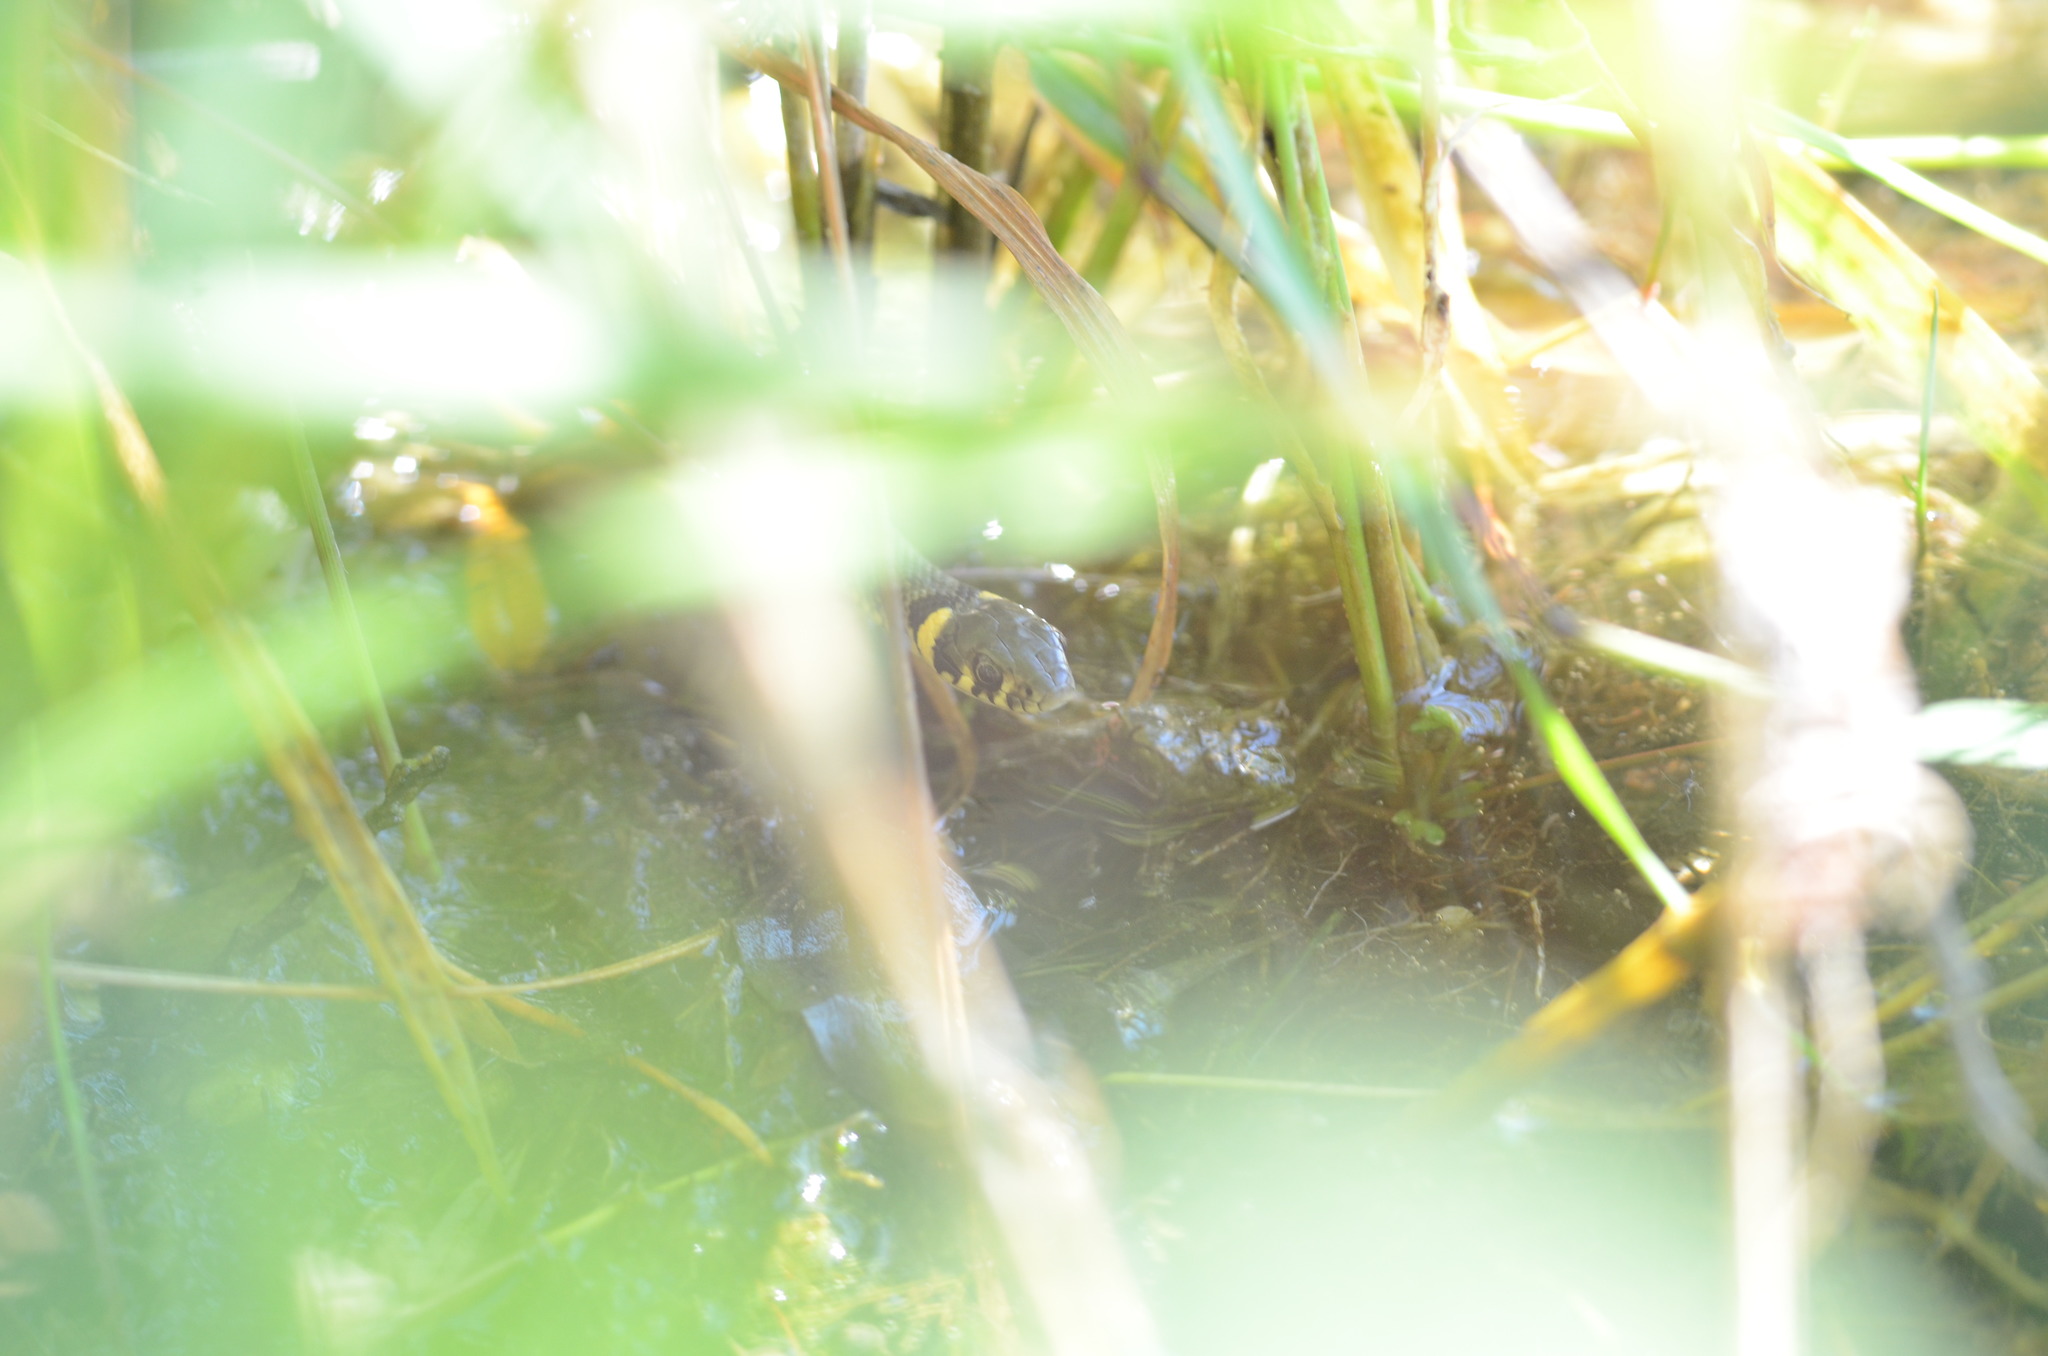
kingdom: Animalia
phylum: Chordata
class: Squamata
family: Colubridae
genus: Natrix
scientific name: Natrix natrix
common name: Grass snake
